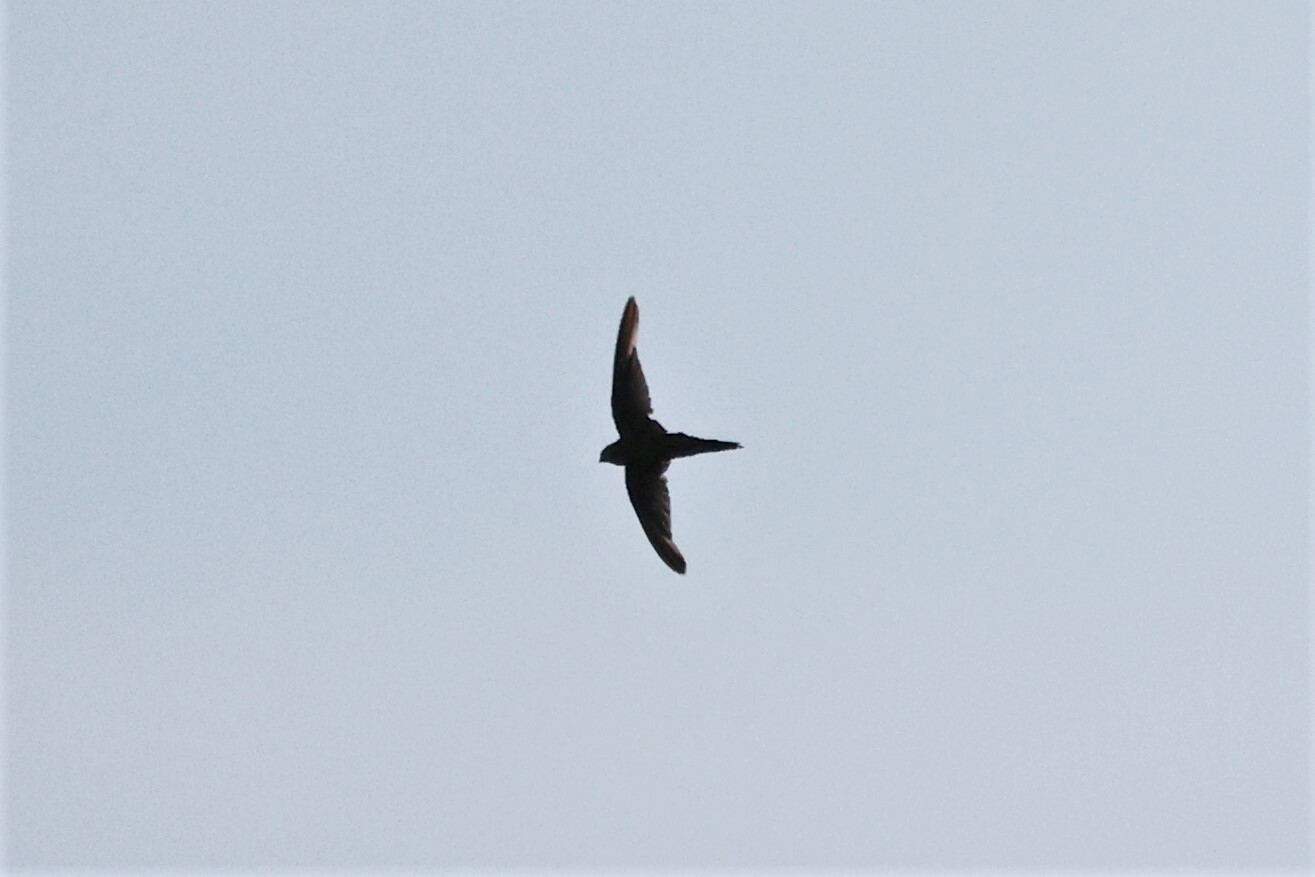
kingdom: Animalia
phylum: Chordata
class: Aves
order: Apodiformes
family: Apodidae
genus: Apus
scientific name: Apus apus
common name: Common swift
